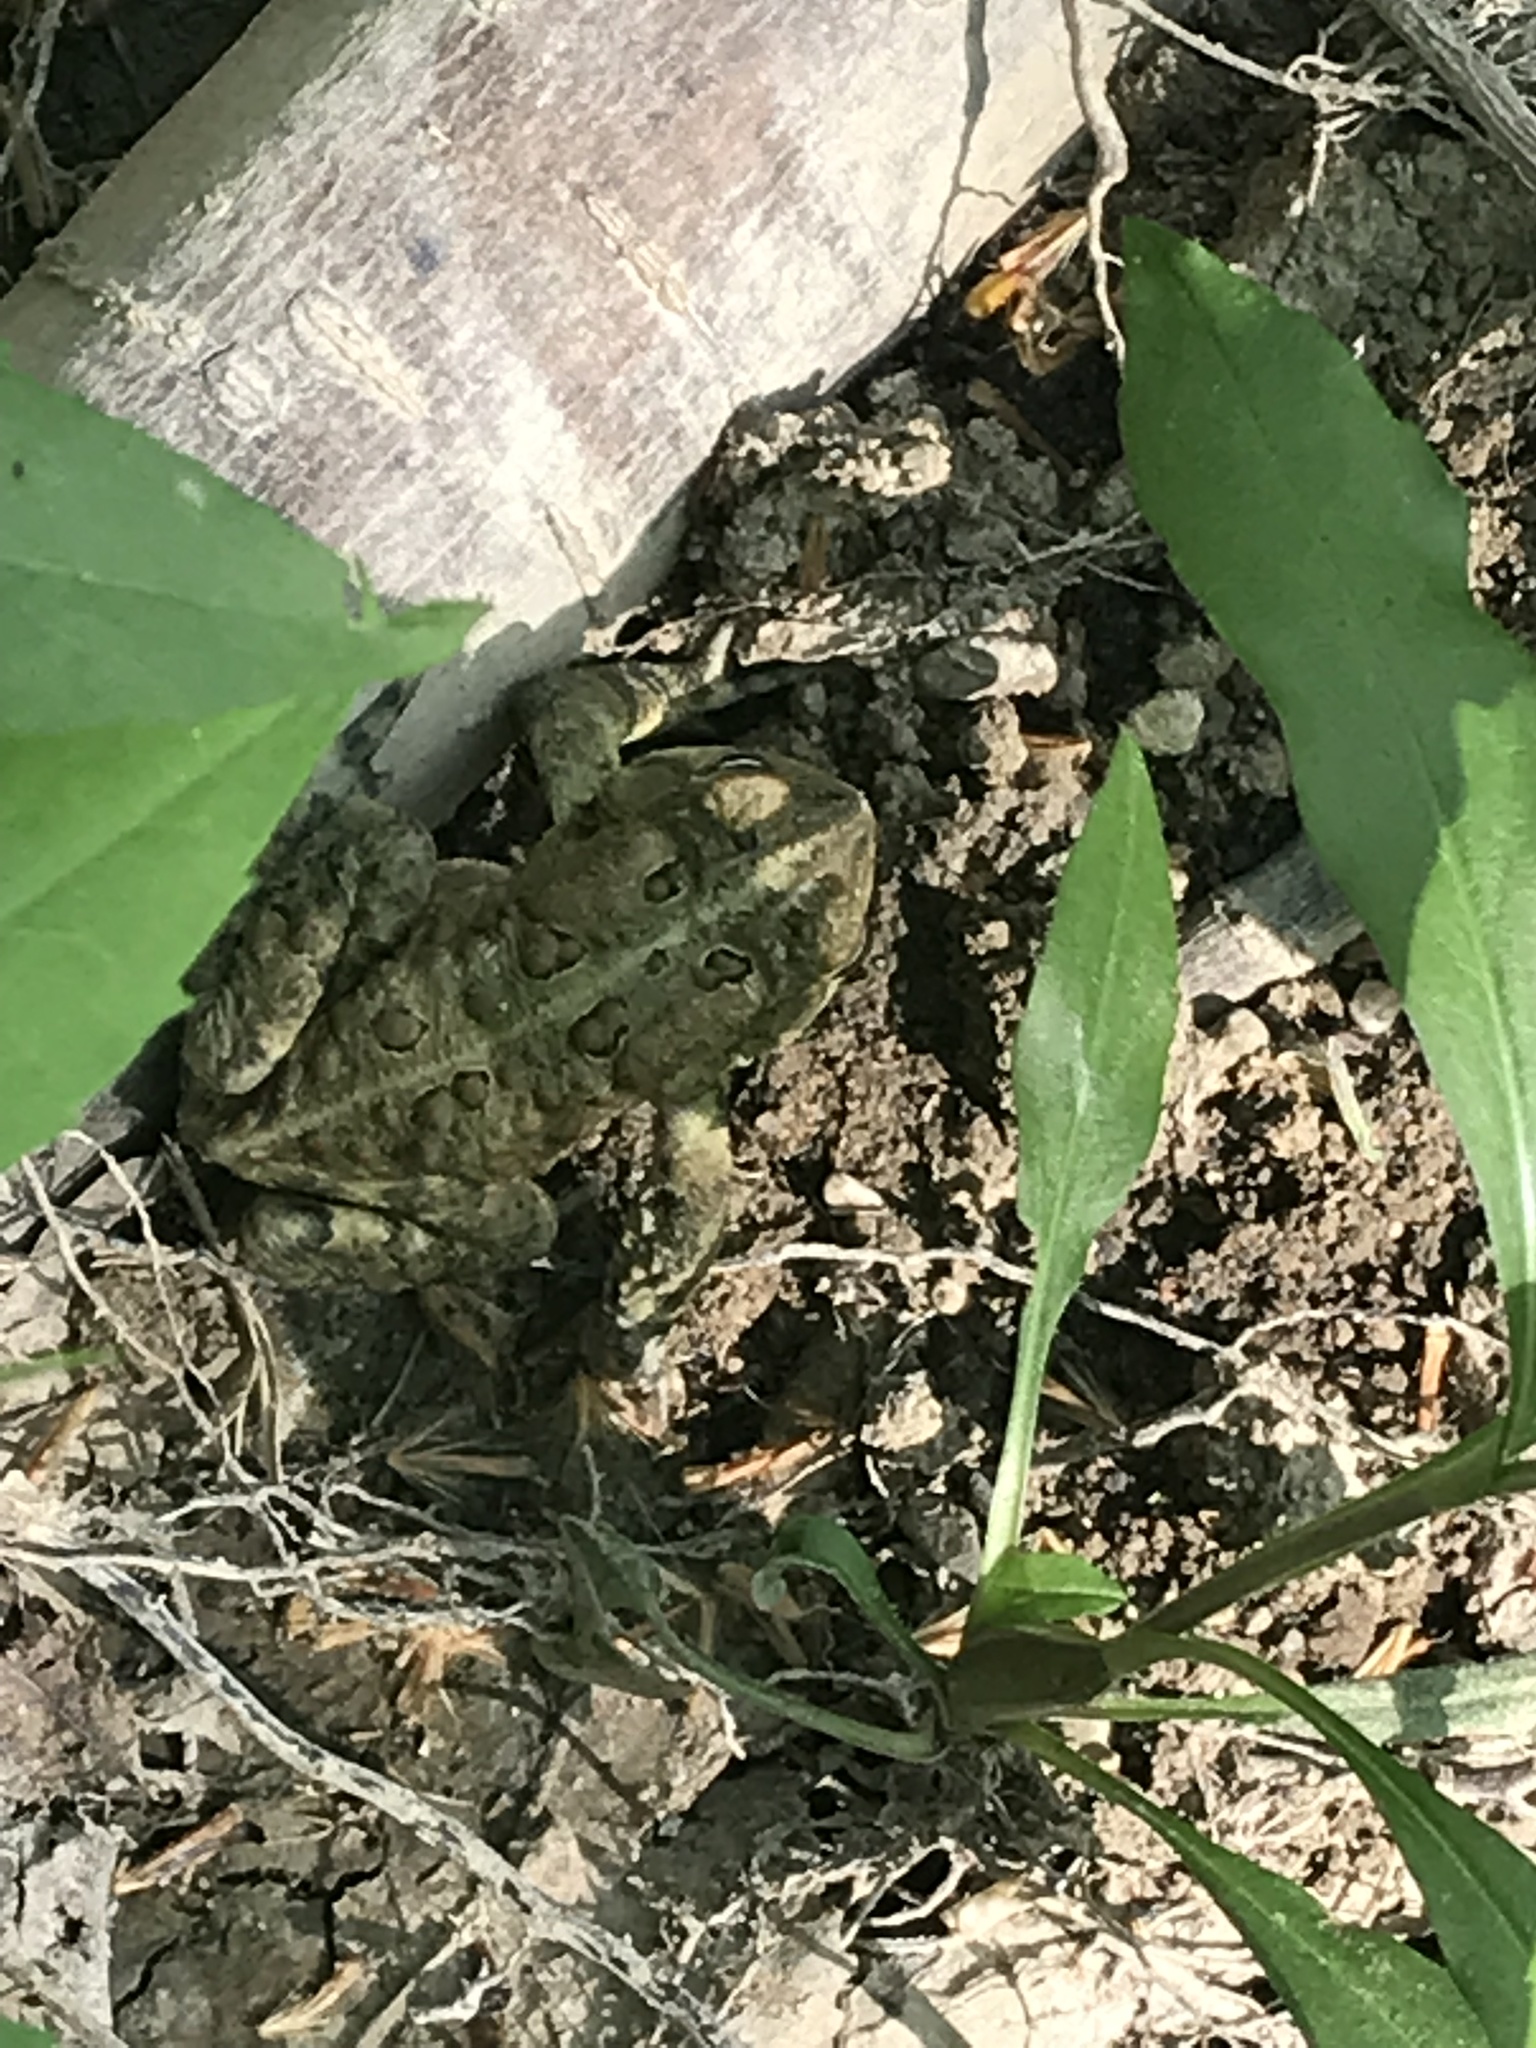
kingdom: Animalia
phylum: Chordata
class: Amphibia
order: Anura
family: Bufonidae
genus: Anaxyrus
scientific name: Anaxyrus americanus
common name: American toad
